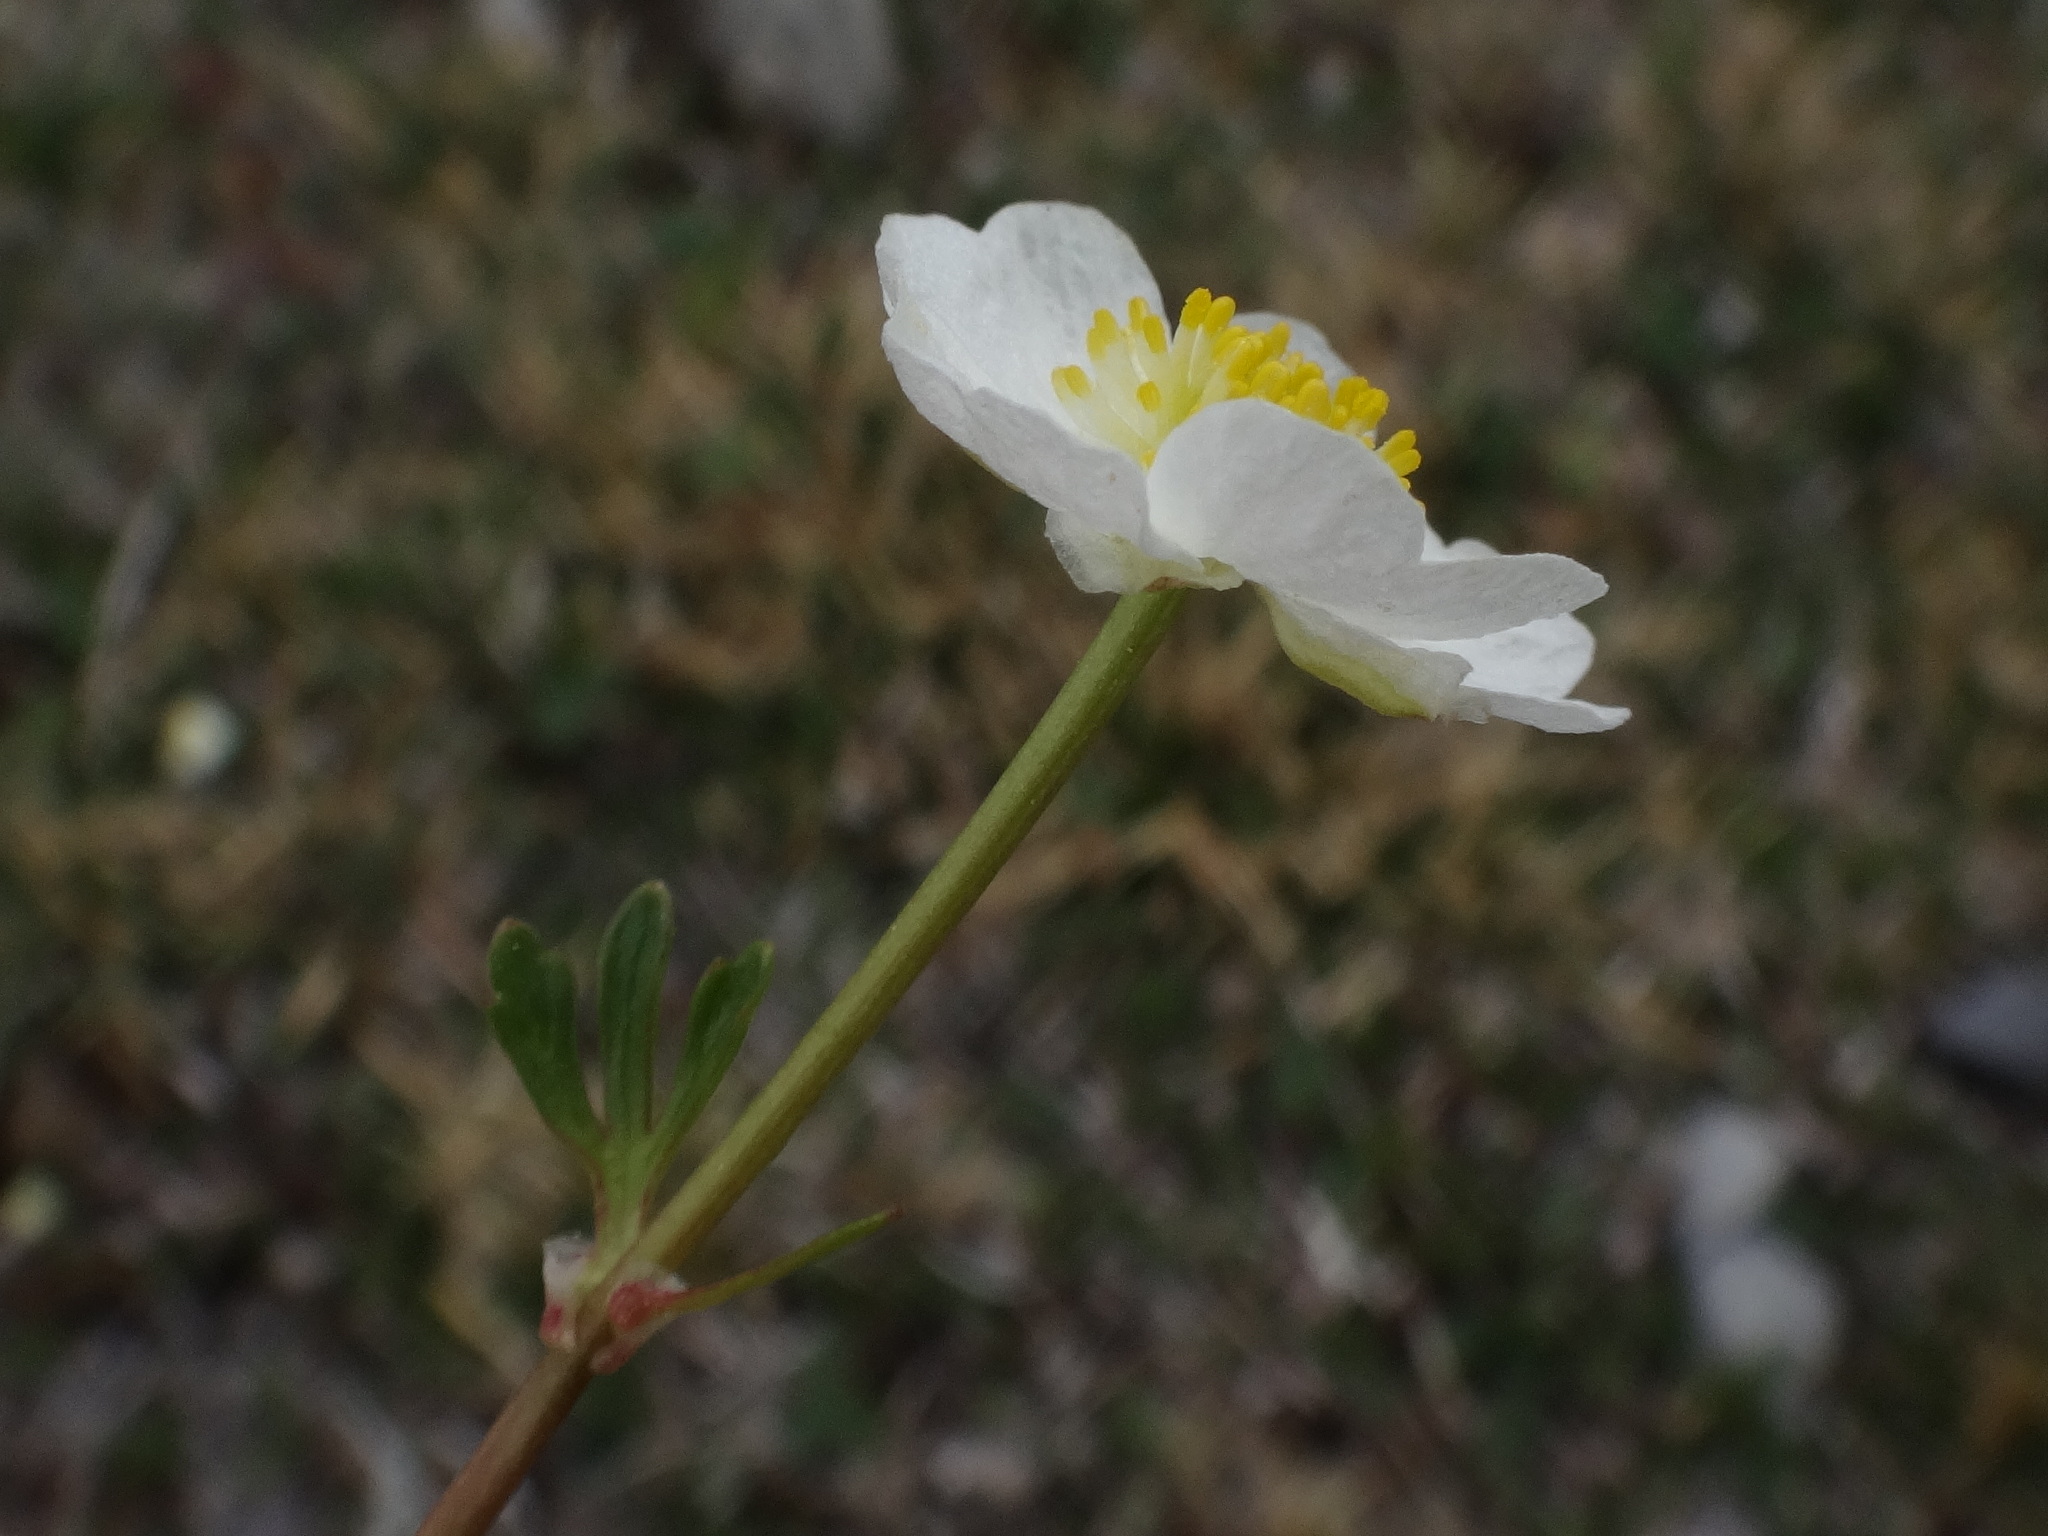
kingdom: Plantae
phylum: Tracheophyta
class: Magnoliopsida
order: Ranunculales
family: Ranunculaceae
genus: Ranunculus
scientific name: Ranunculus alpestris
